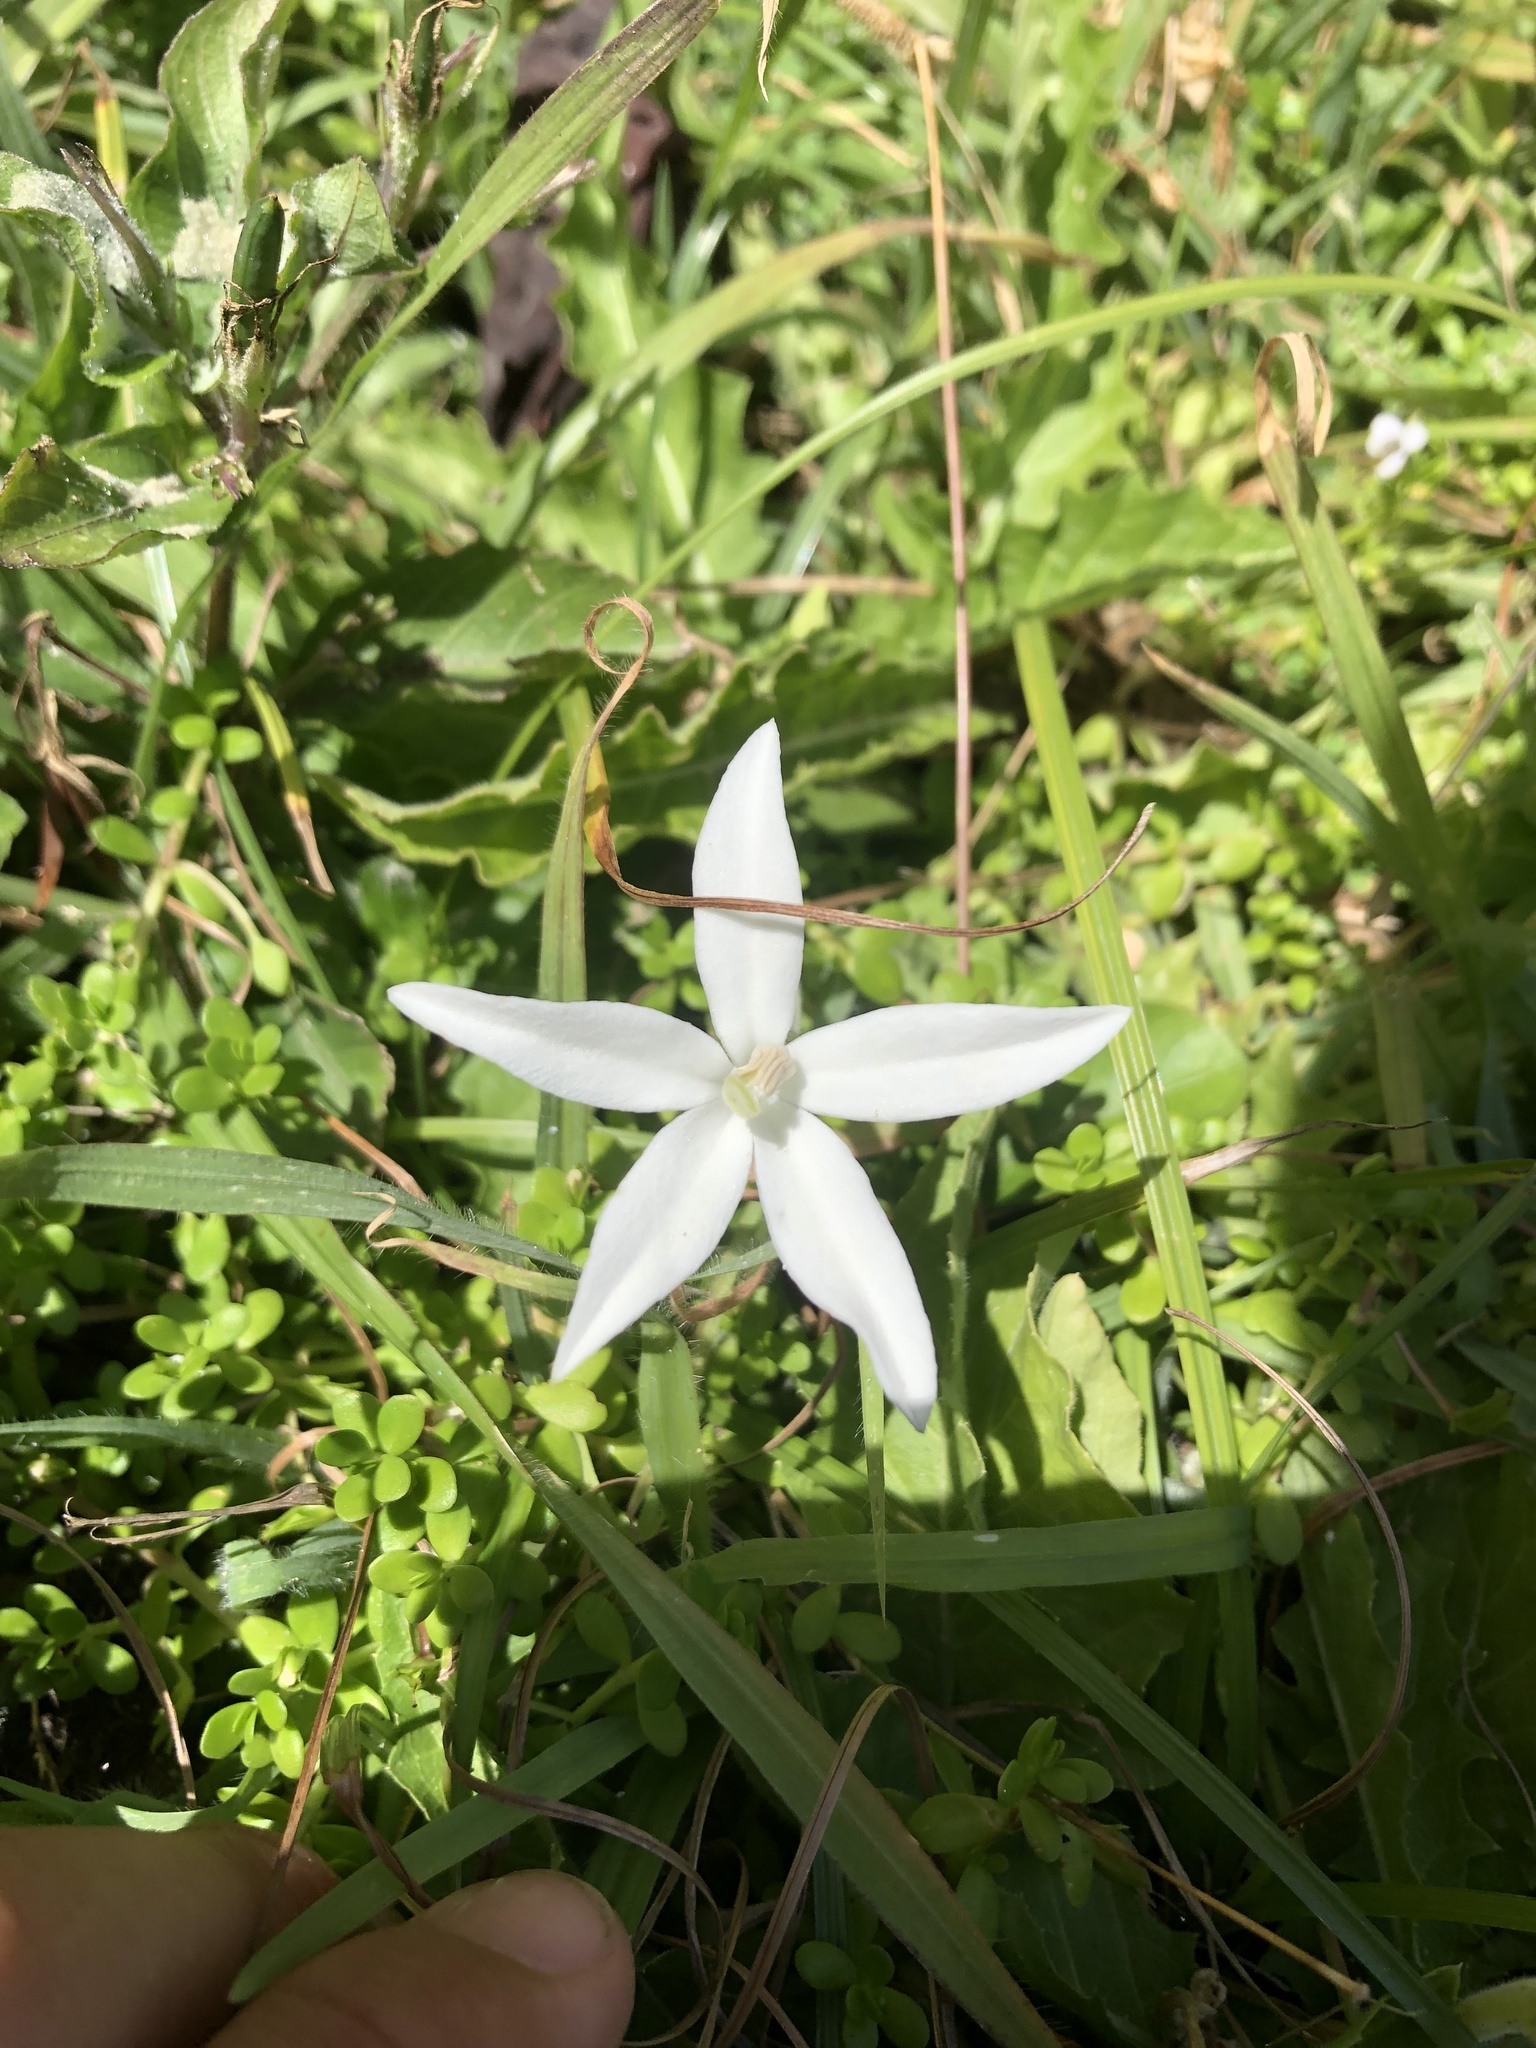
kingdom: Plantae
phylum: Tracheophyta
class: Magnoliopsida
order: Asterales
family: Campanulaceae
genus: Hippobroma
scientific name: Hippobroma longiflora
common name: Madamfate
